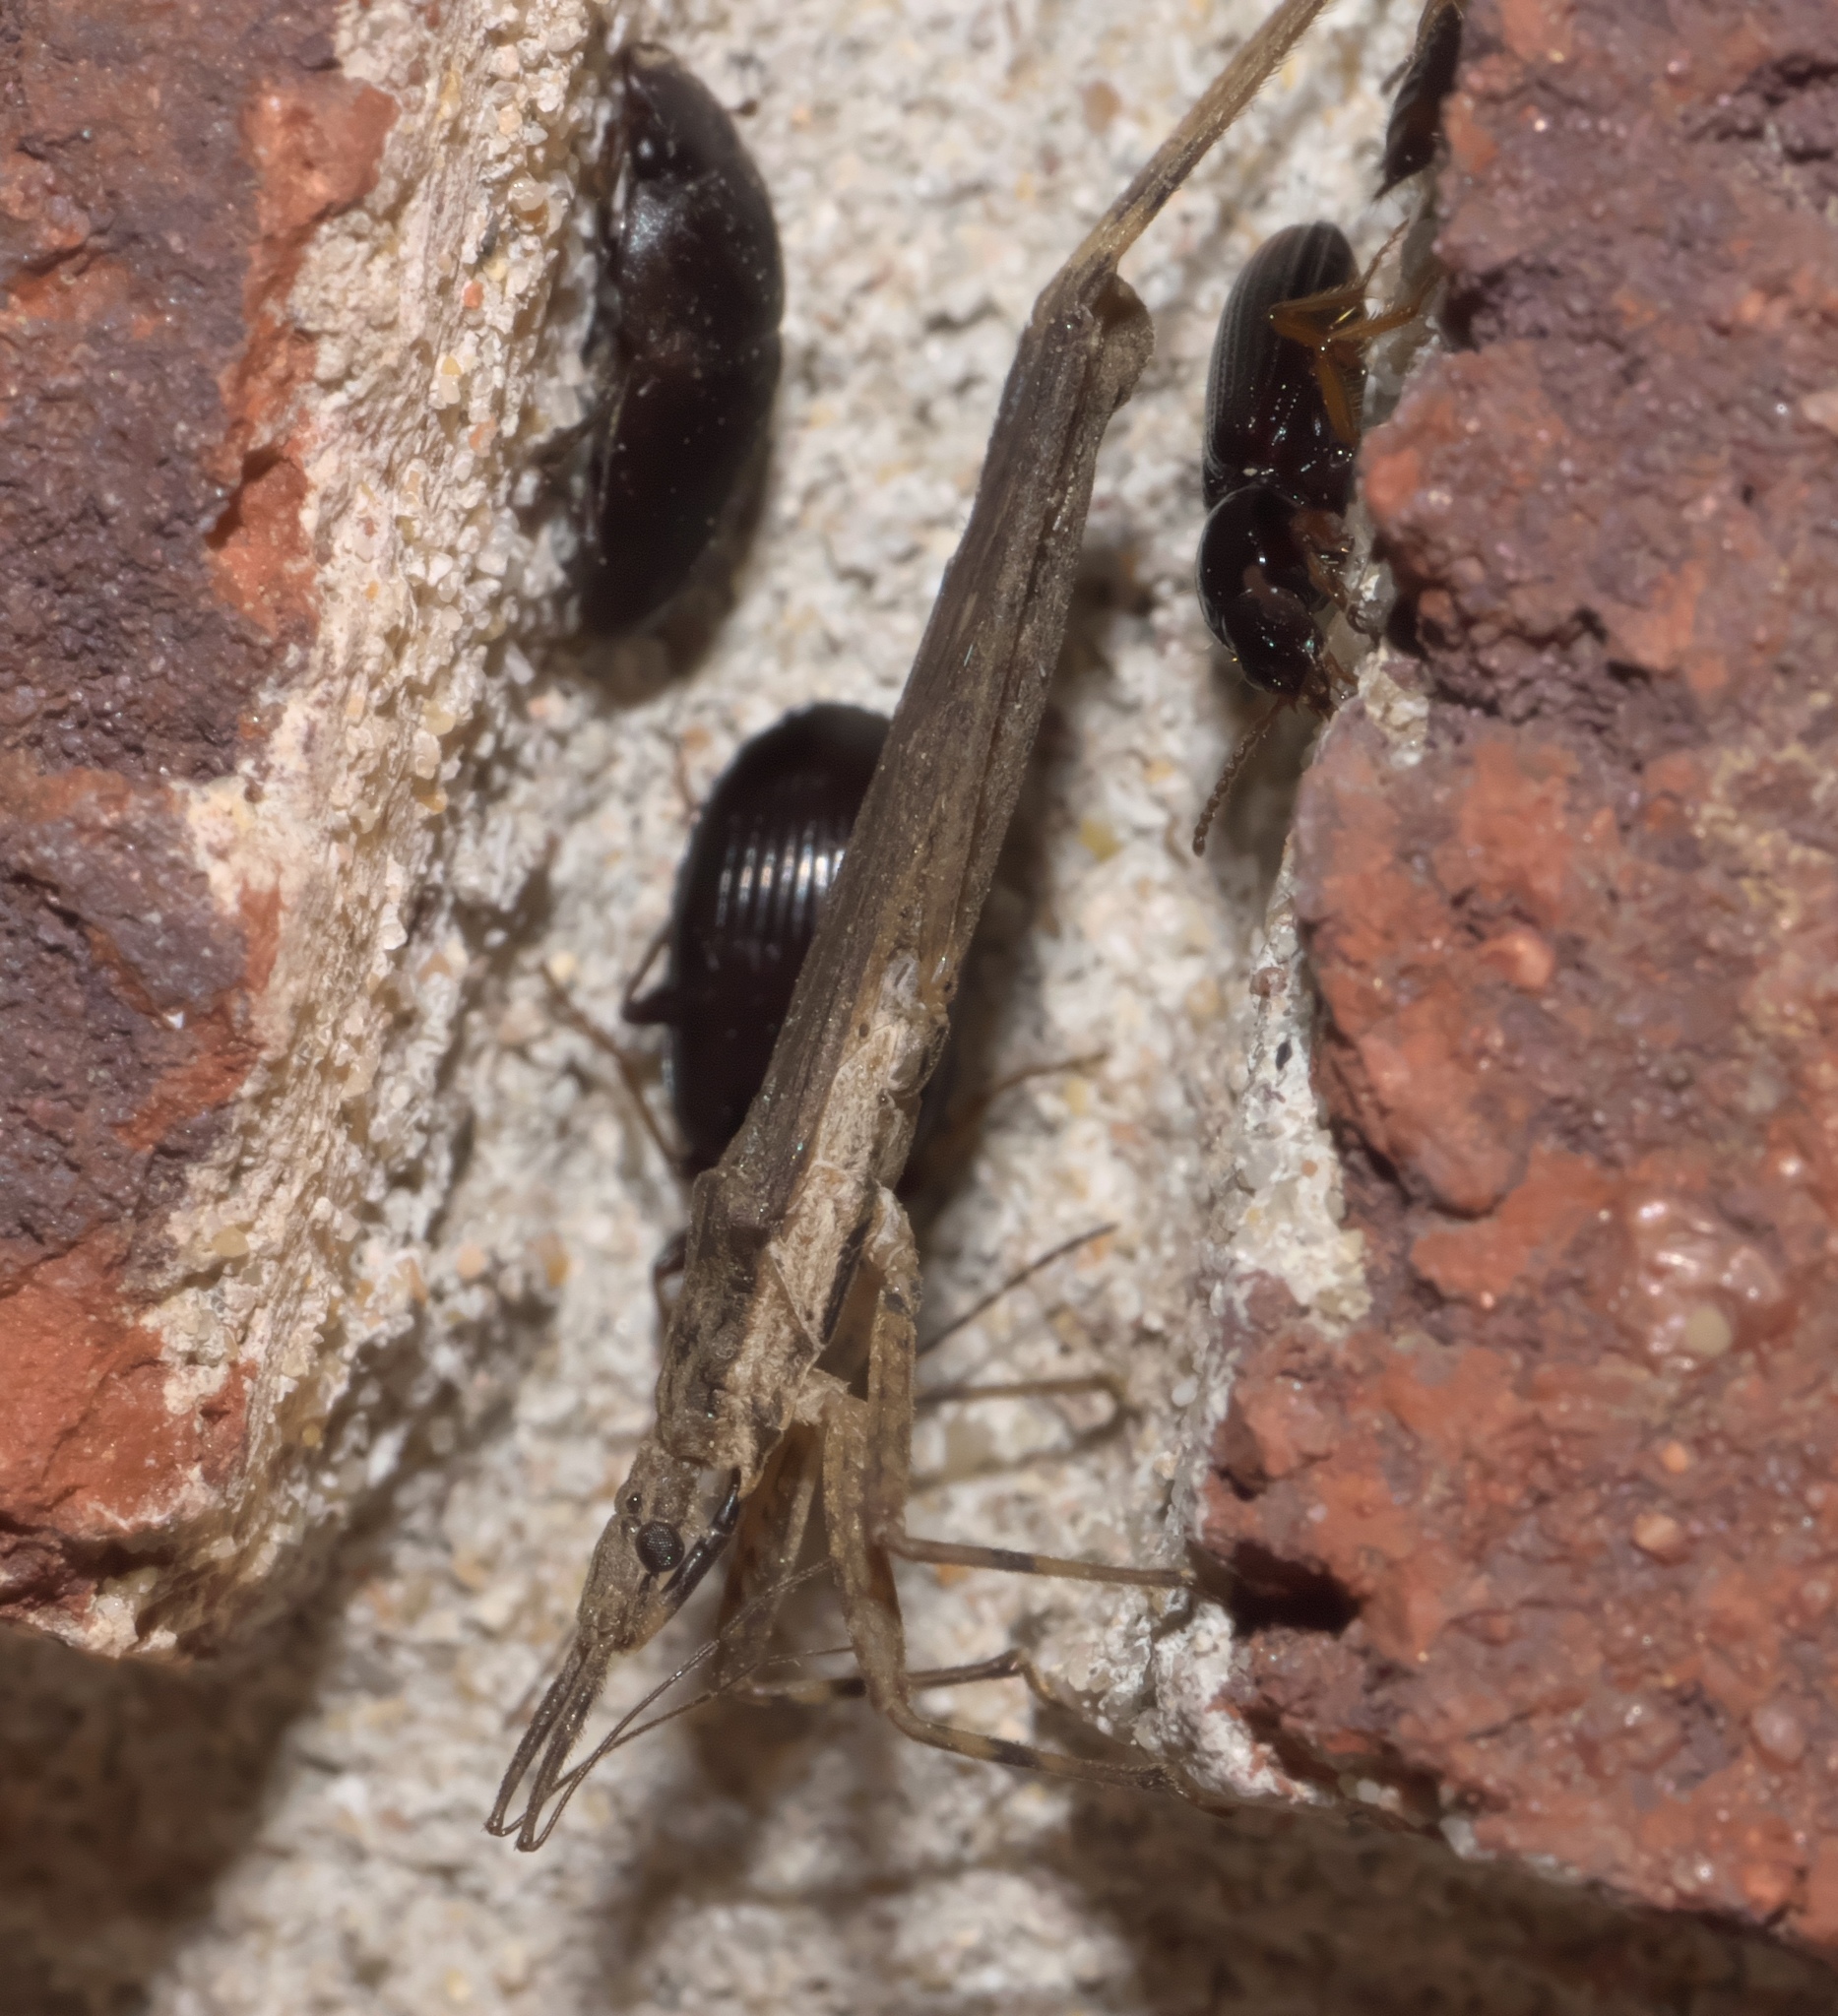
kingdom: Animalia
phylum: Arthropoda
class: Insecta
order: Hemiptera
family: Reduviidae
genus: Pygolampis
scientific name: Pygolampis pectoralis
